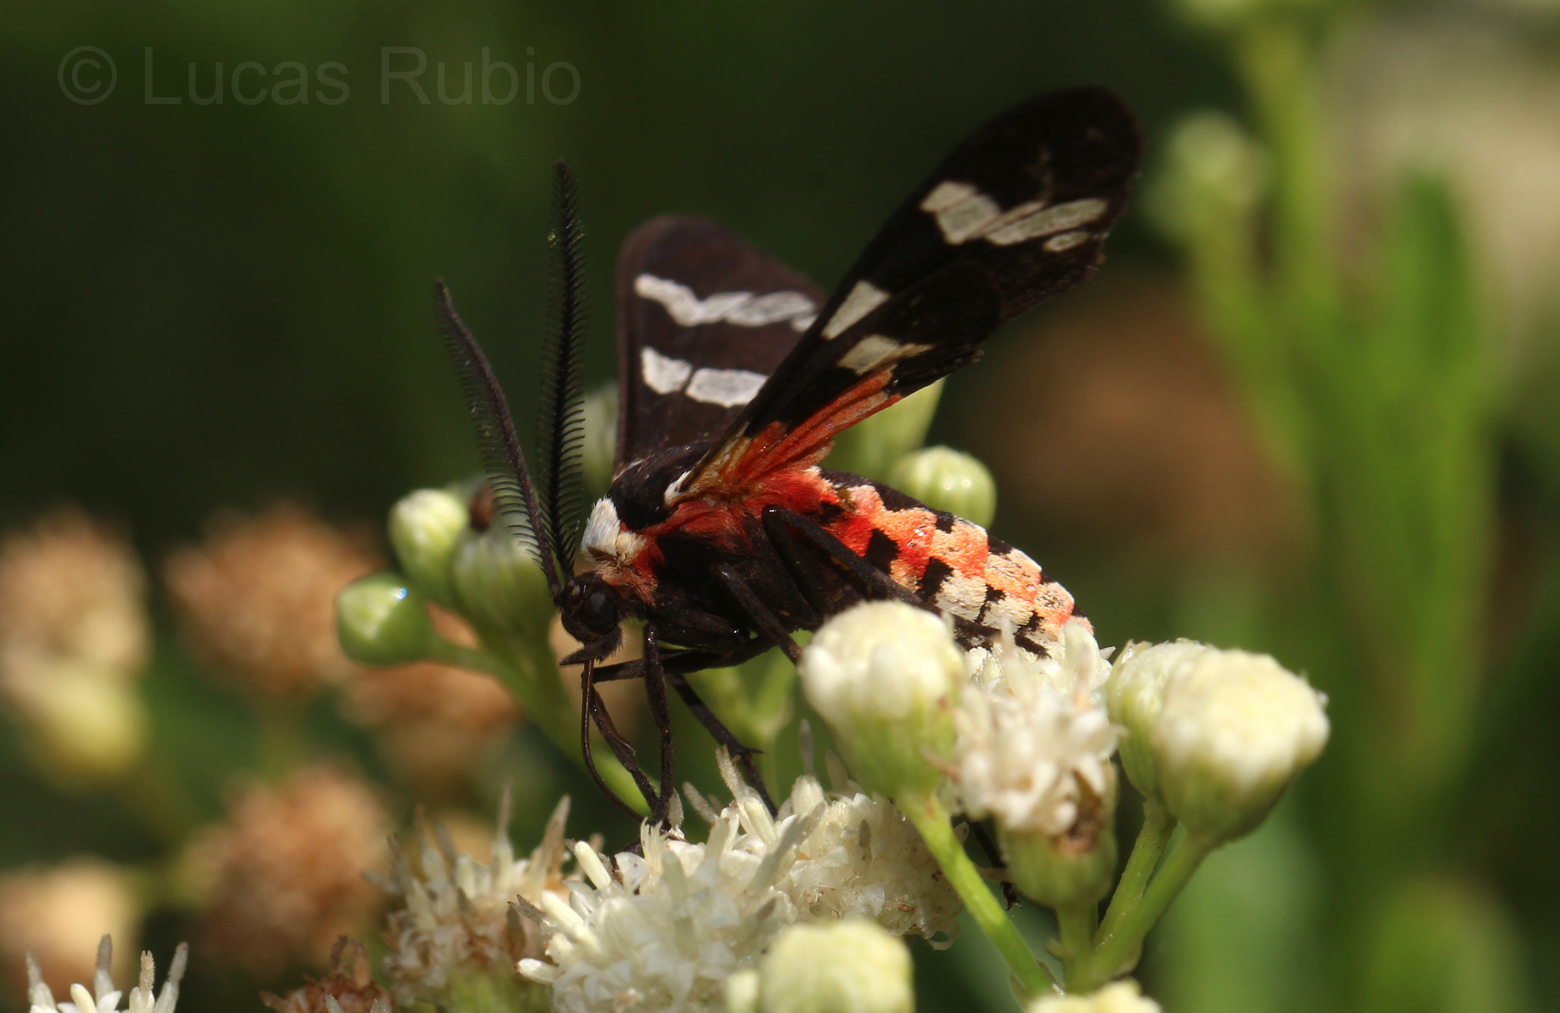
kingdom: Animalia
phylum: Arthropoda
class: Insecta
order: Lepidoptera
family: Erebidae
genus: Eurata
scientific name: Eurata patagiata
